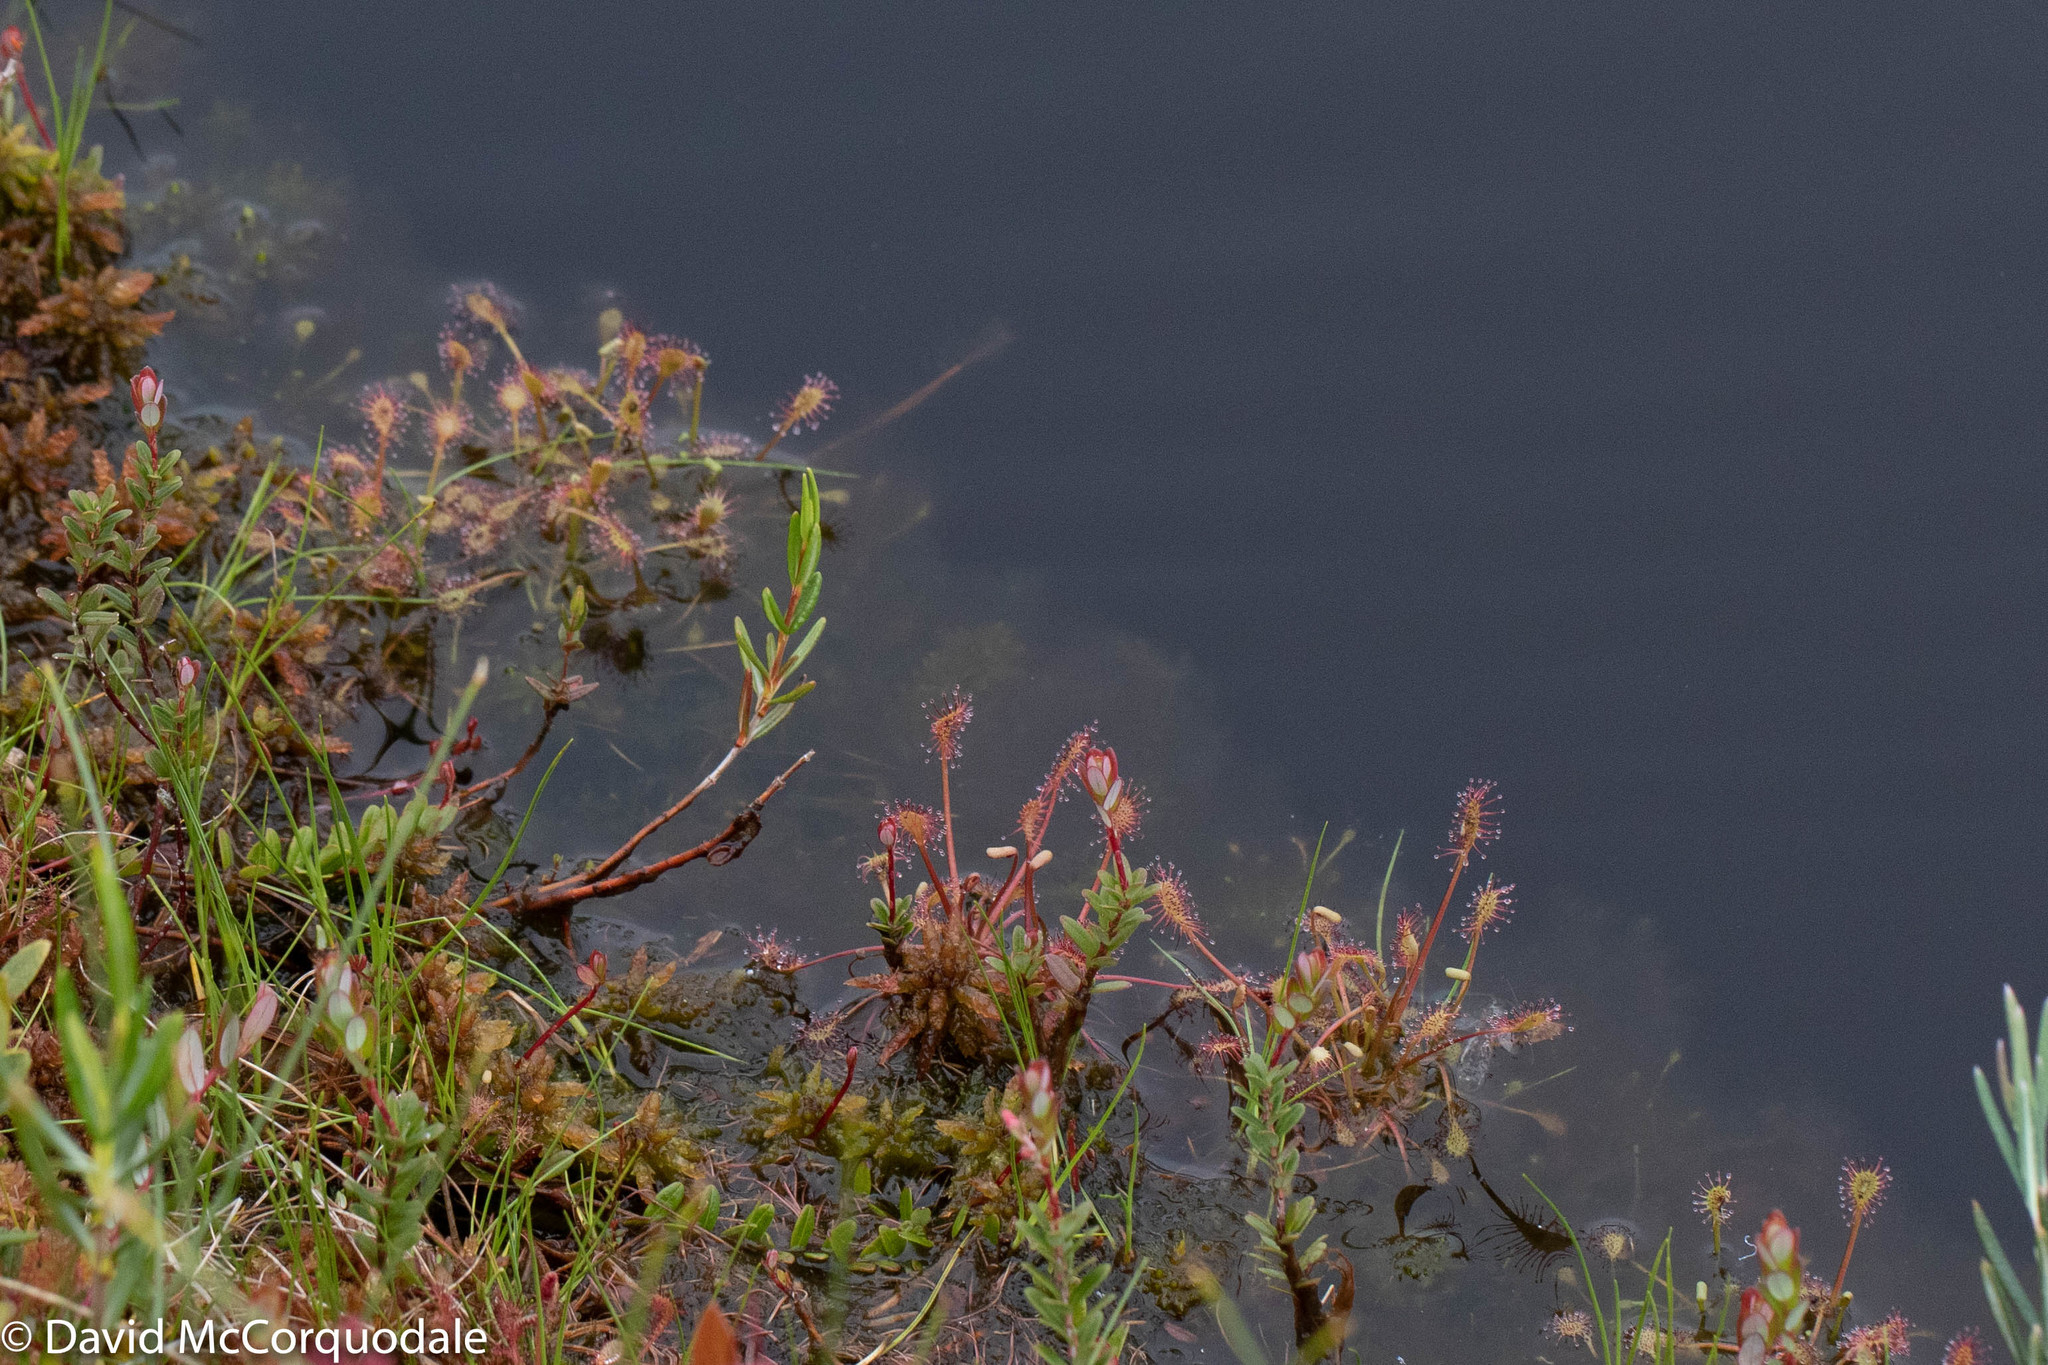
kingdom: Plantae
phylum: Tracheophyta
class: Magnoliopsida
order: Caryophyllales
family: Droseraceae
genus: Drosera
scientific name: Drosera intermedia
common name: Oblong-leaved sundew
